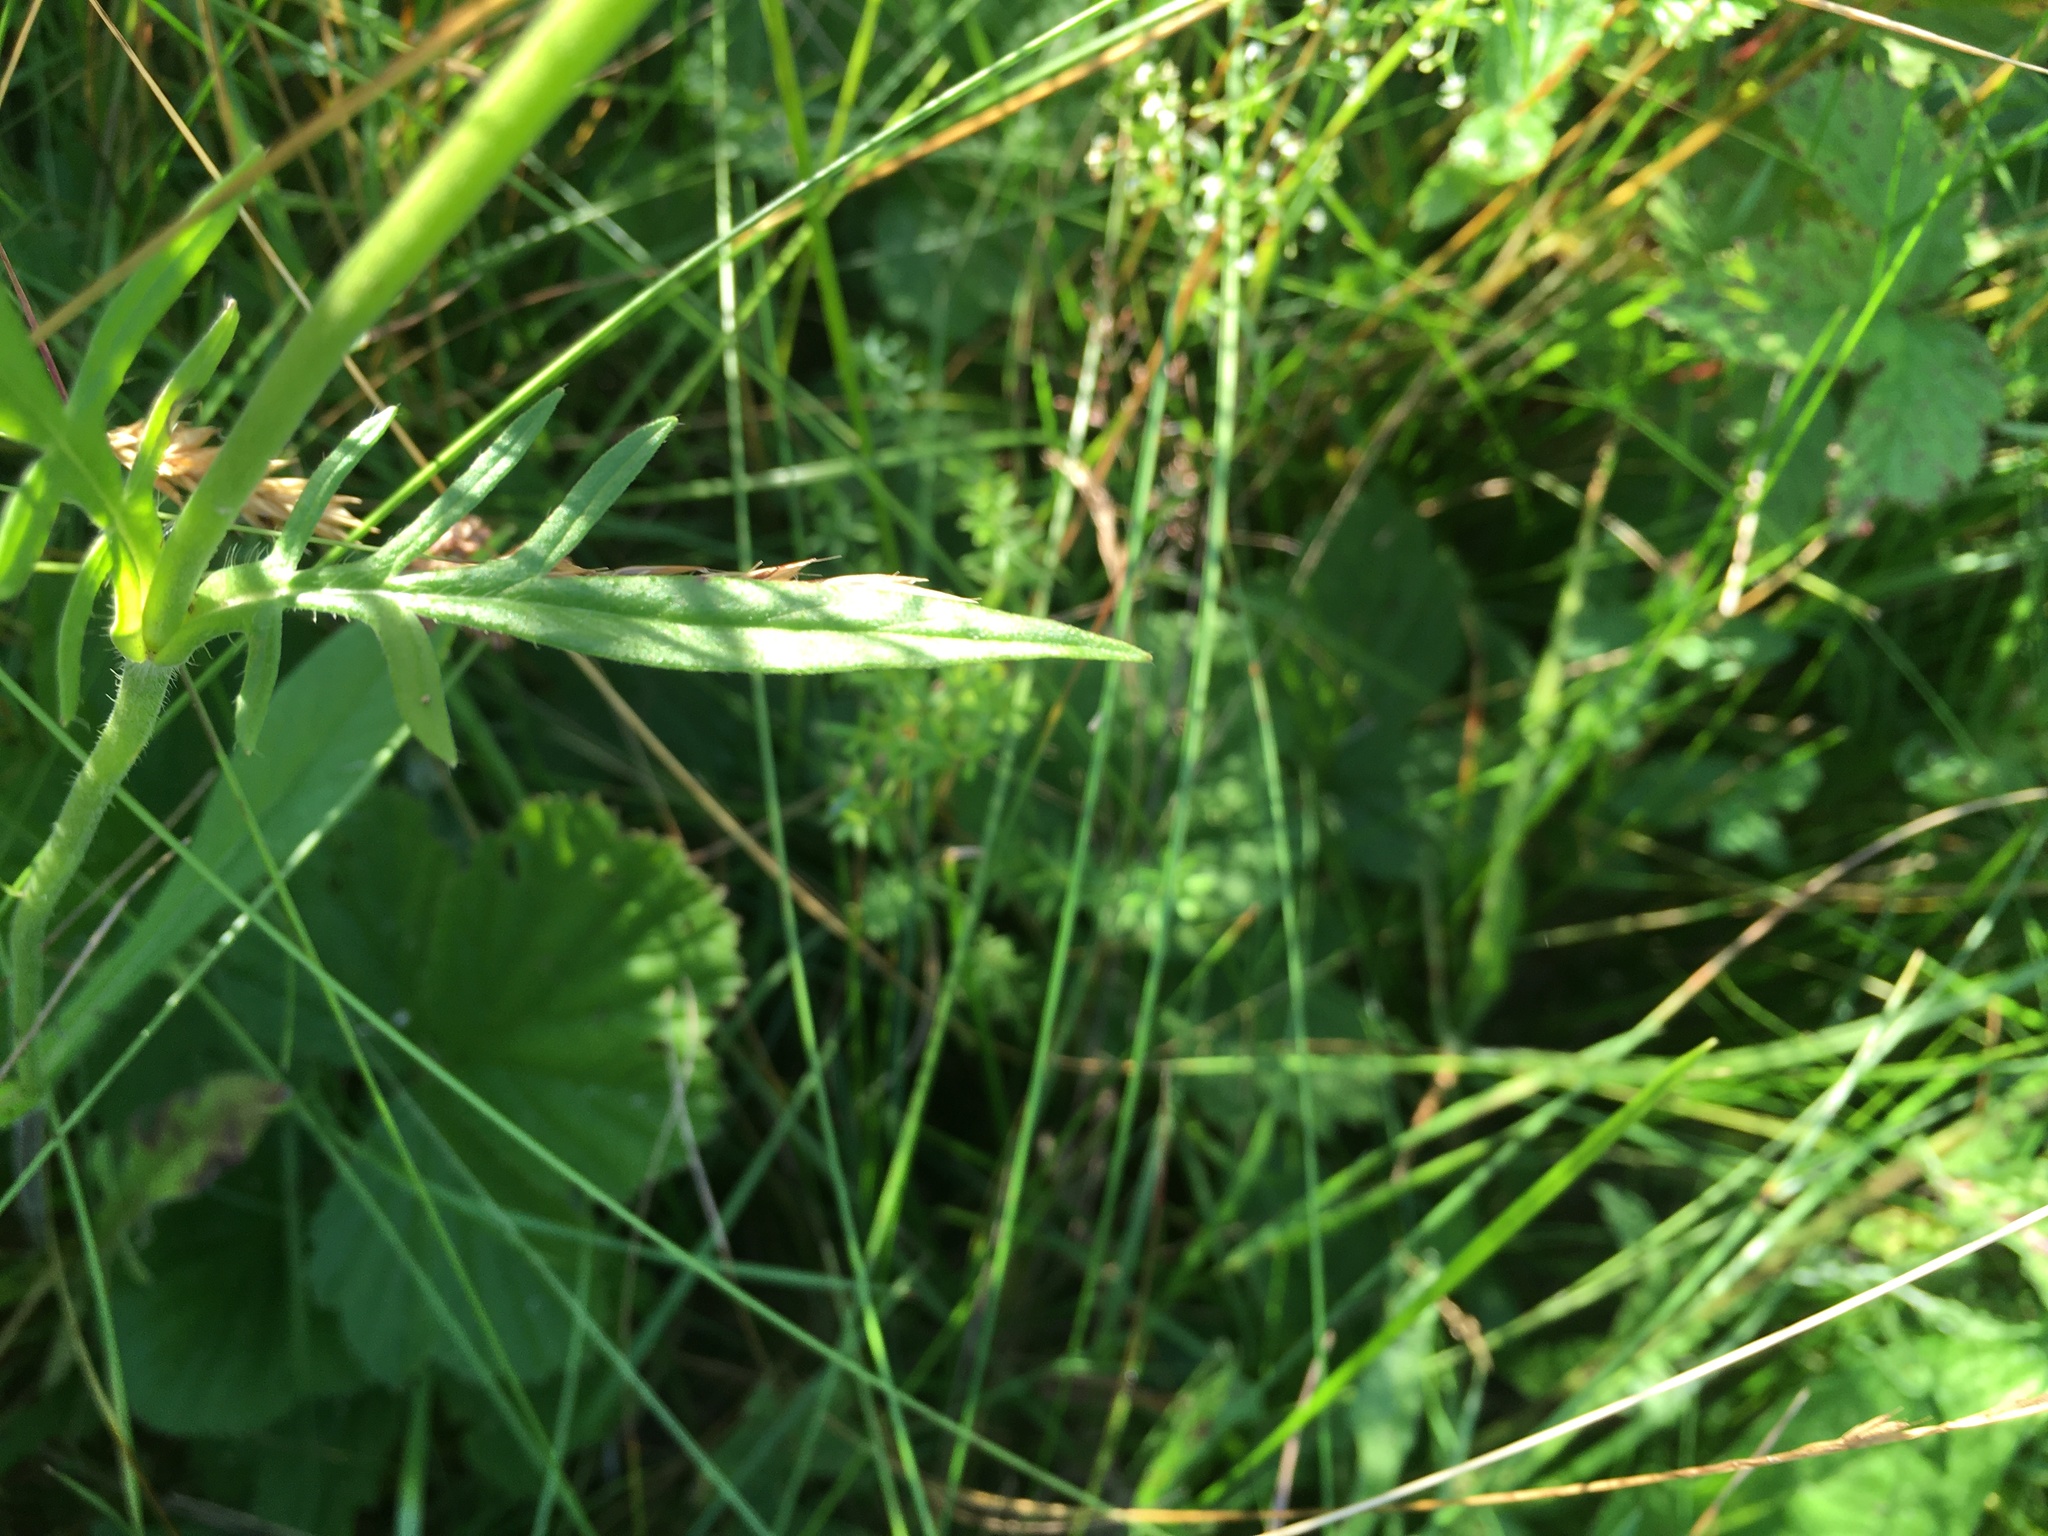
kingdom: Plantae
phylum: Tracheophyta
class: Magnoliopsida
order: Dipsacales
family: Caprifoliaceae
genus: Knautia
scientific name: Knautia arvensis
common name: Field scabiosa
